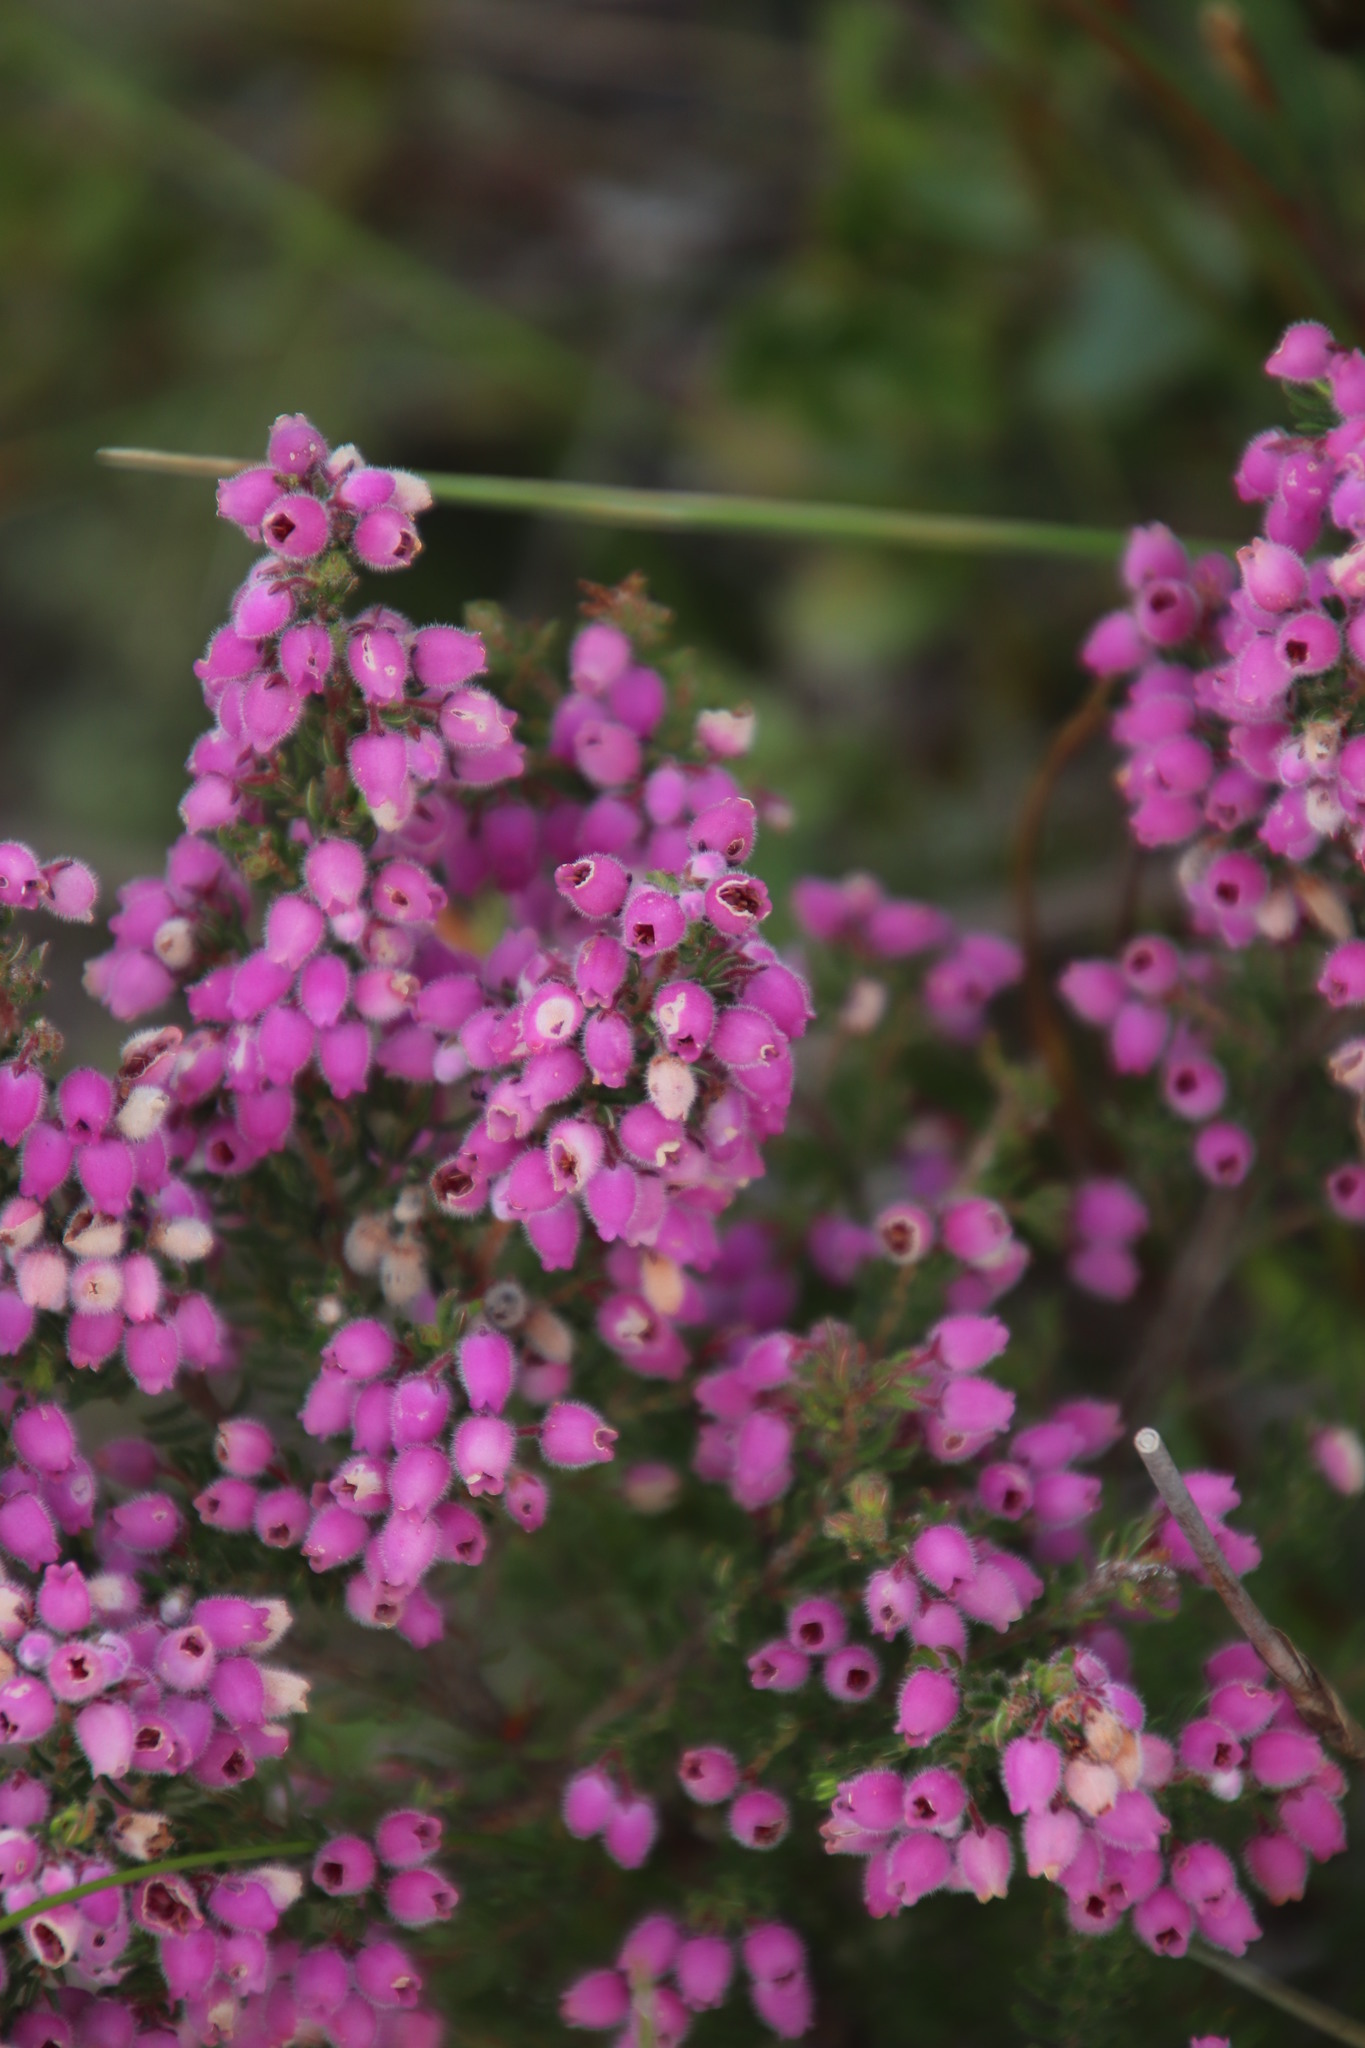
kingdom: Plantae
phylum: Tracheophyta
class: Magnoliopsida
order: Ericales
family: Ericaceae
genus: Erica
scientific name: Erica hirtiflora
